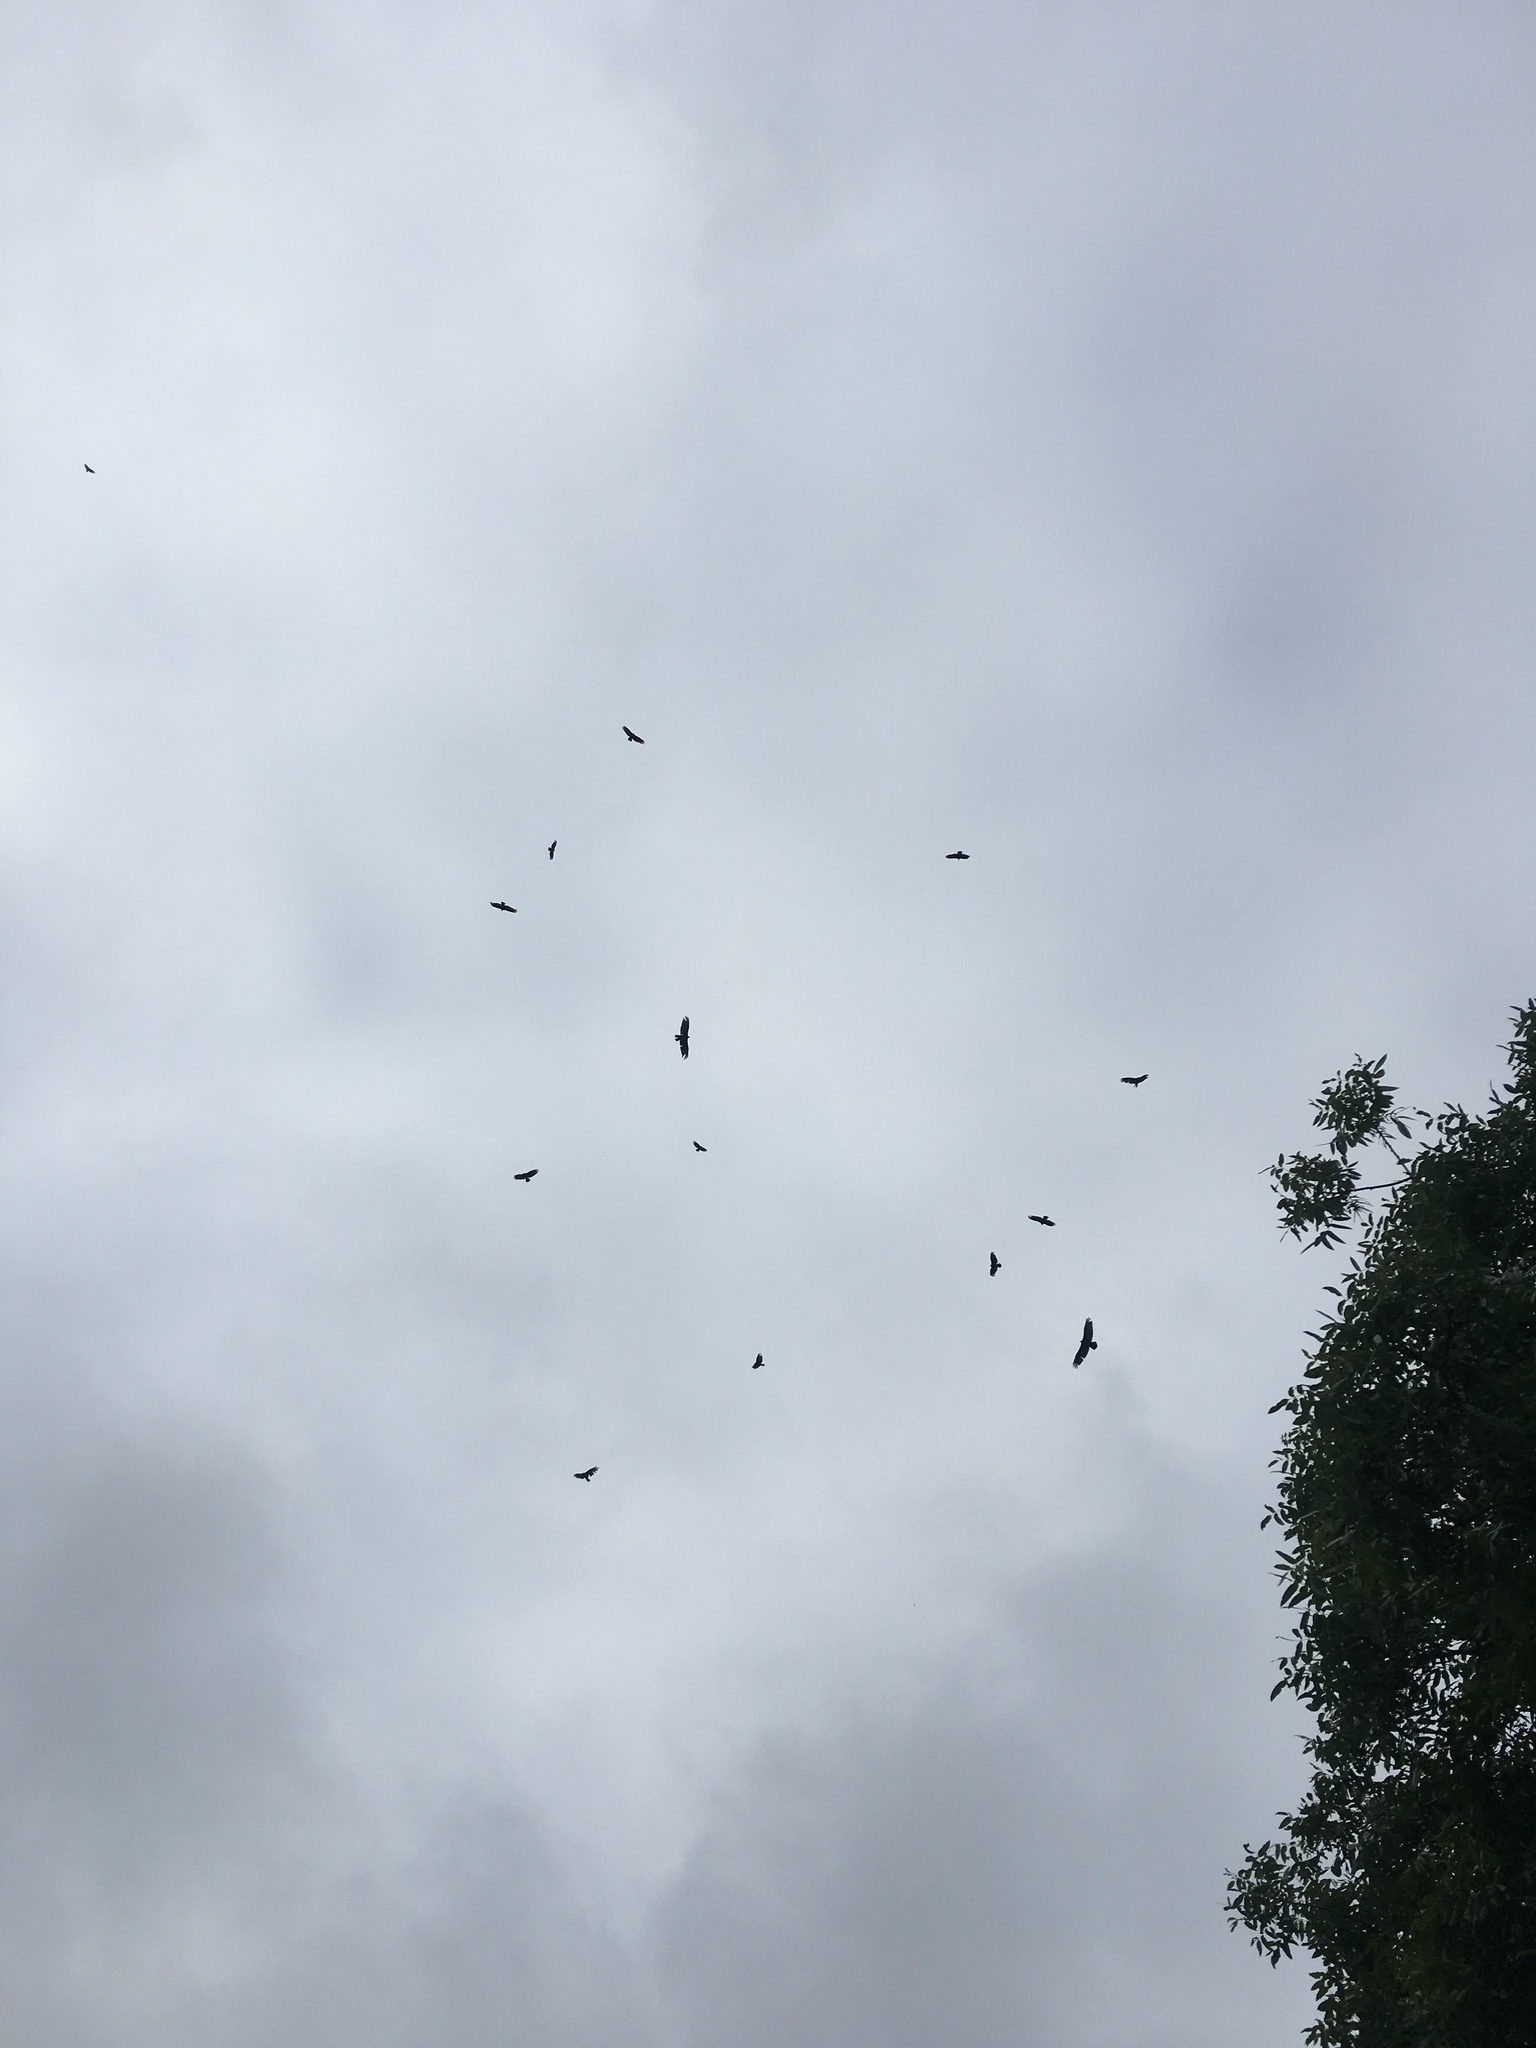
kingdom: Animalia
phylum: Chordata
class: Aves
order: Accipitriformes
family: Cathartidae
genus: Cathartes
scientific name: Cathartes aura
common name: Turkey vulture
